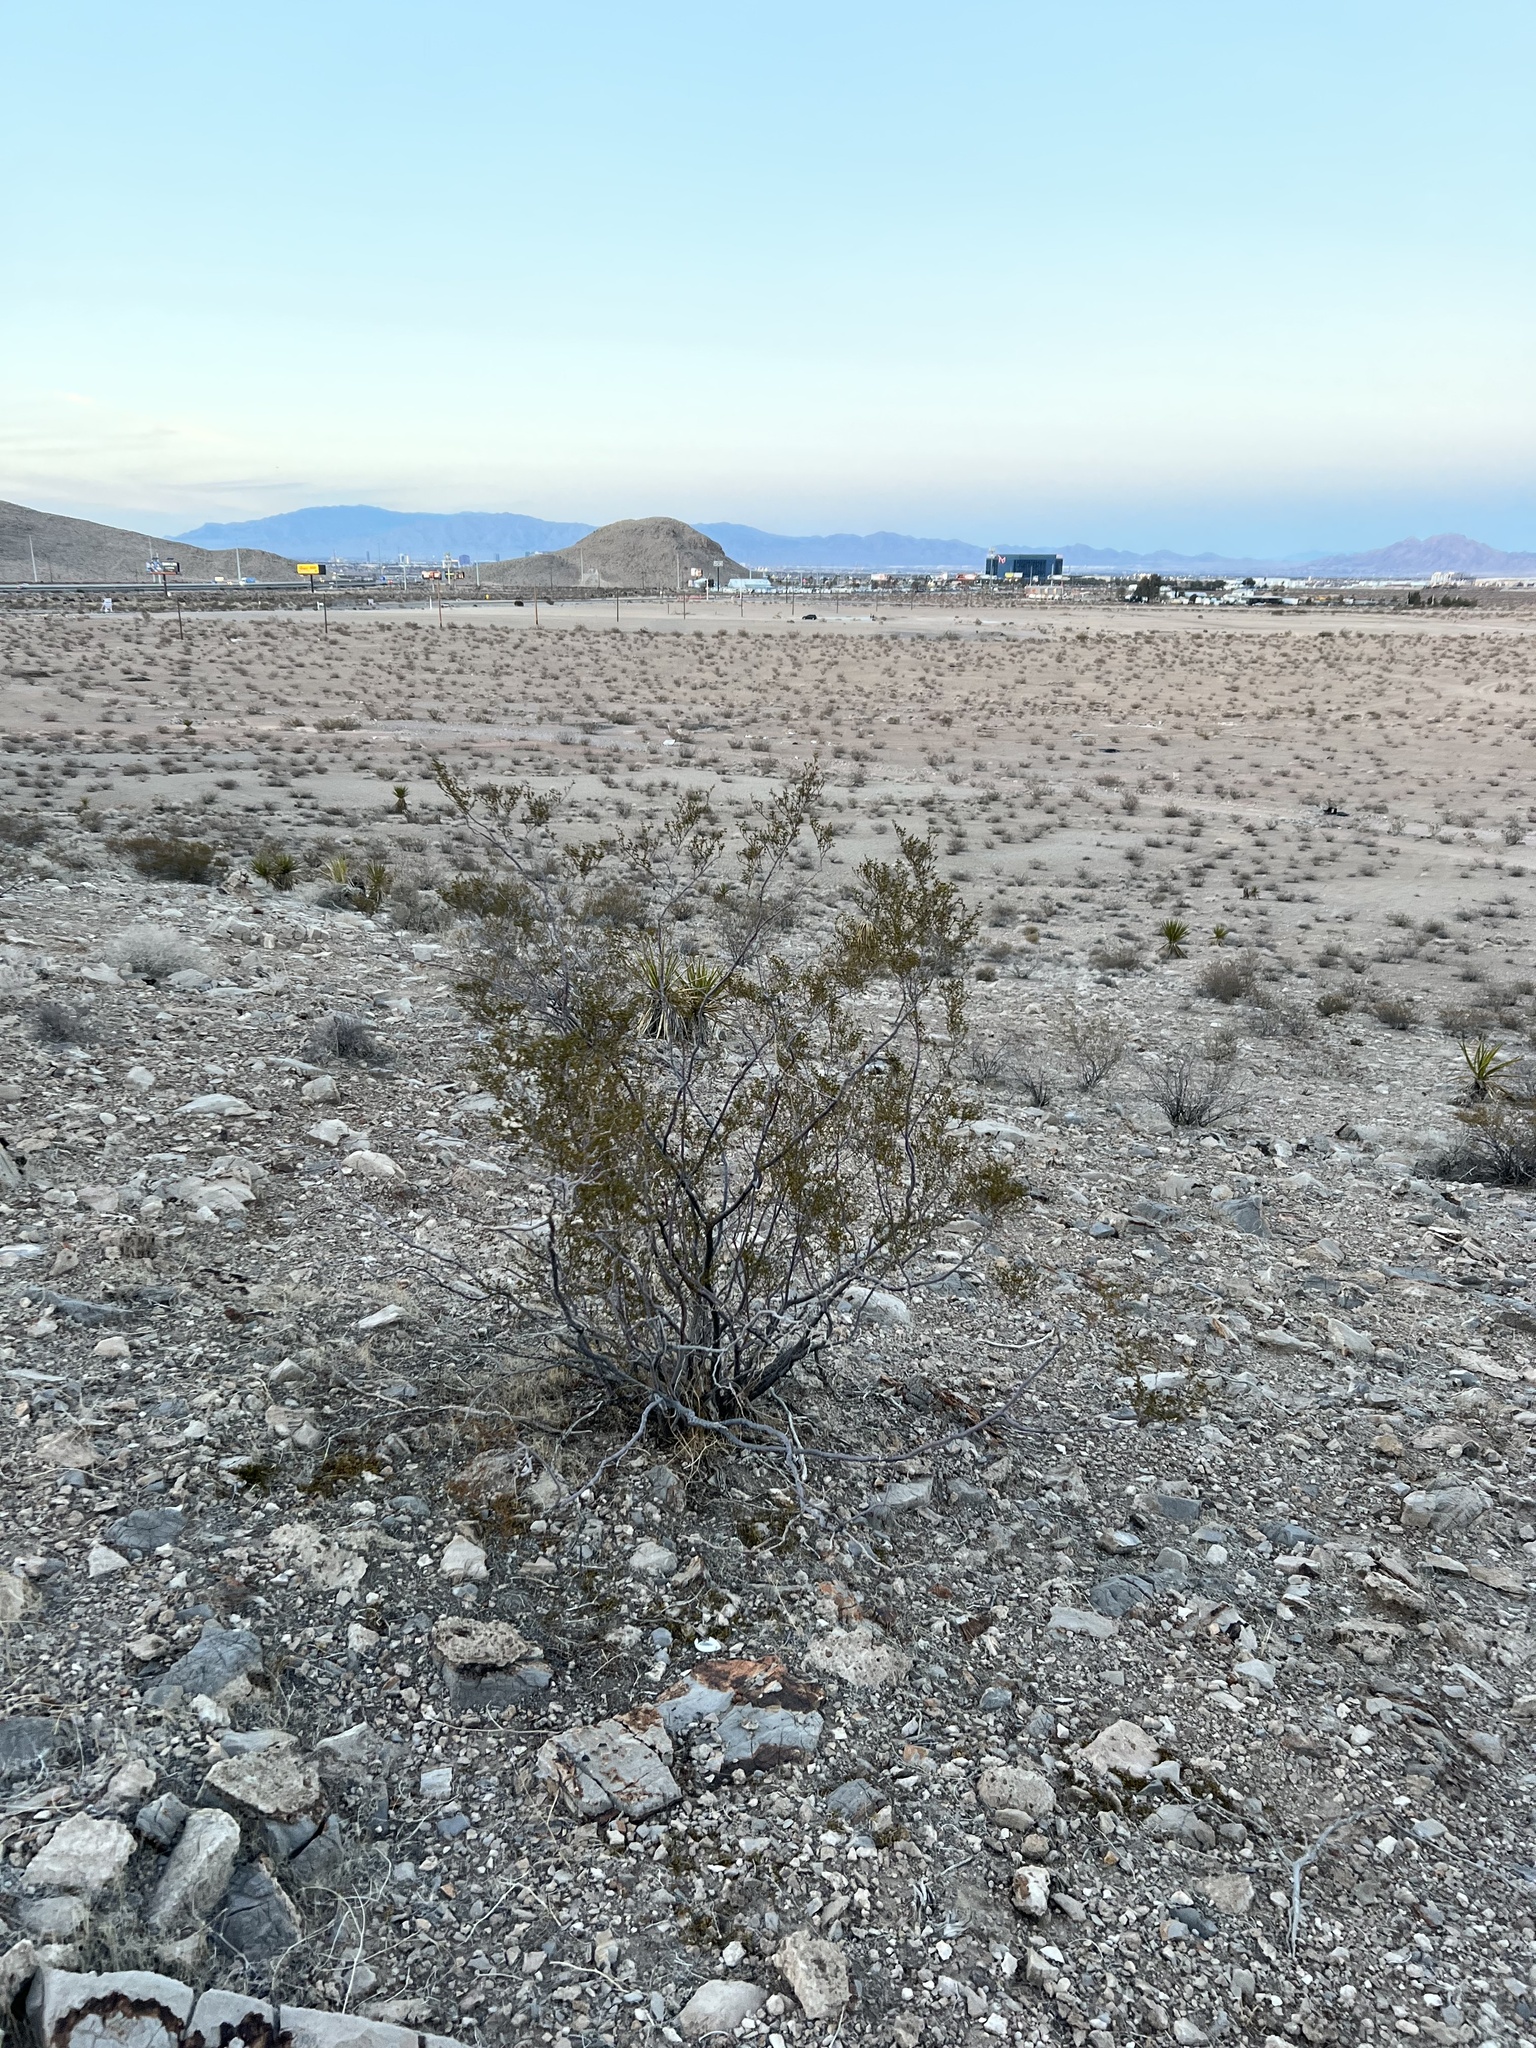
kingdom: Plantae
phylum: Tracheophyta
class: Magnoliopsida
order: Zygophyllales
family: Zygophyllaceae
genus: Larrea
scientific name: Larrea tridentata
